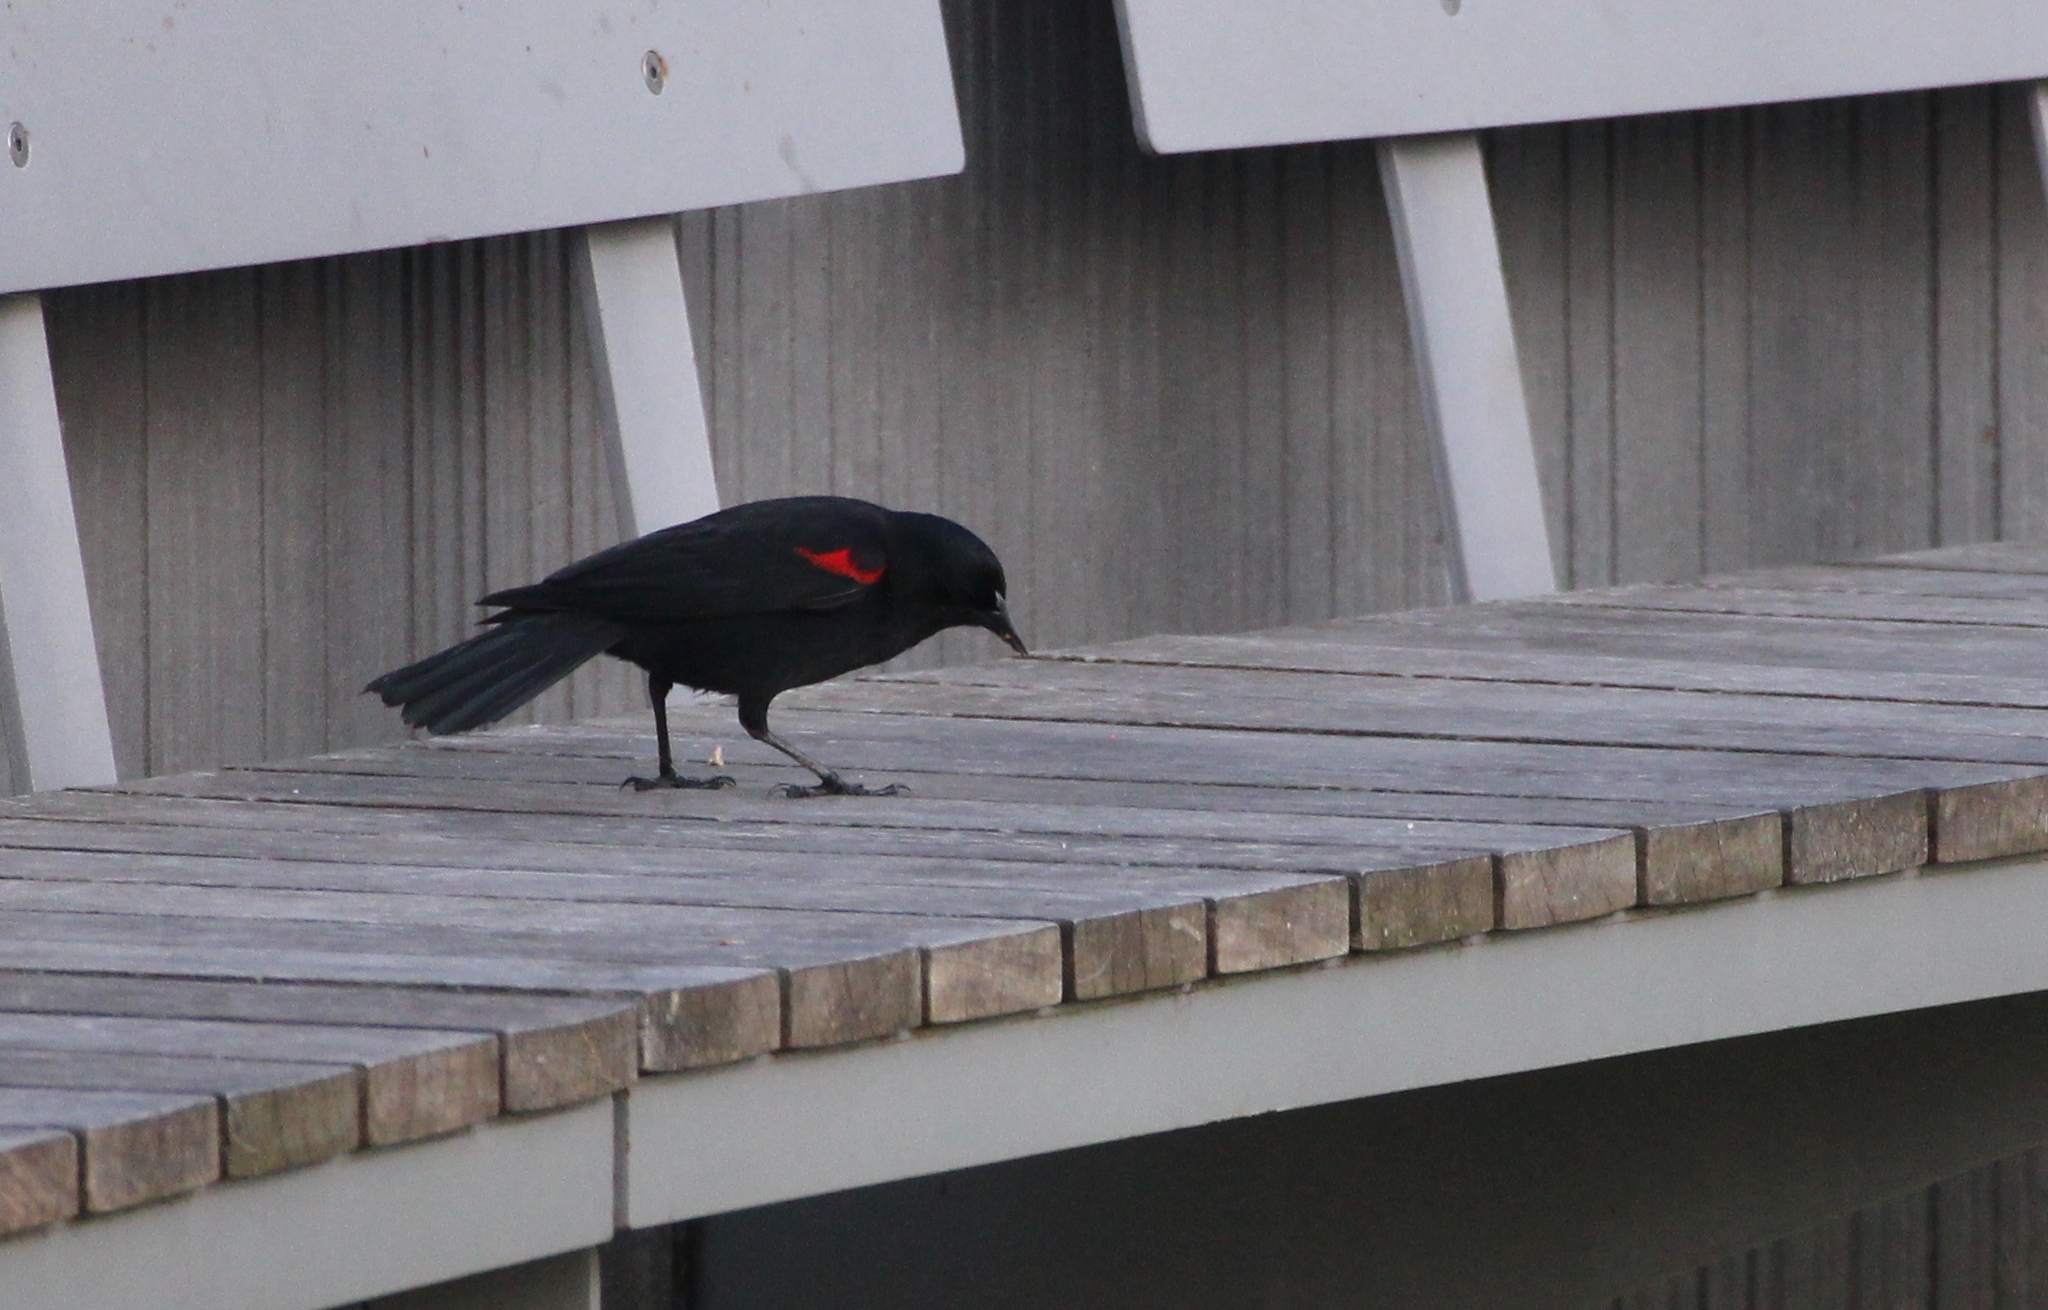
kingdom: Animalia
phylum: Chordata
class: Aves
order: Passeriformes
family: Icteridae
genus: Agelaius
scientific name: Agelaius phoeniceus
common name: Red-winged blackbird
